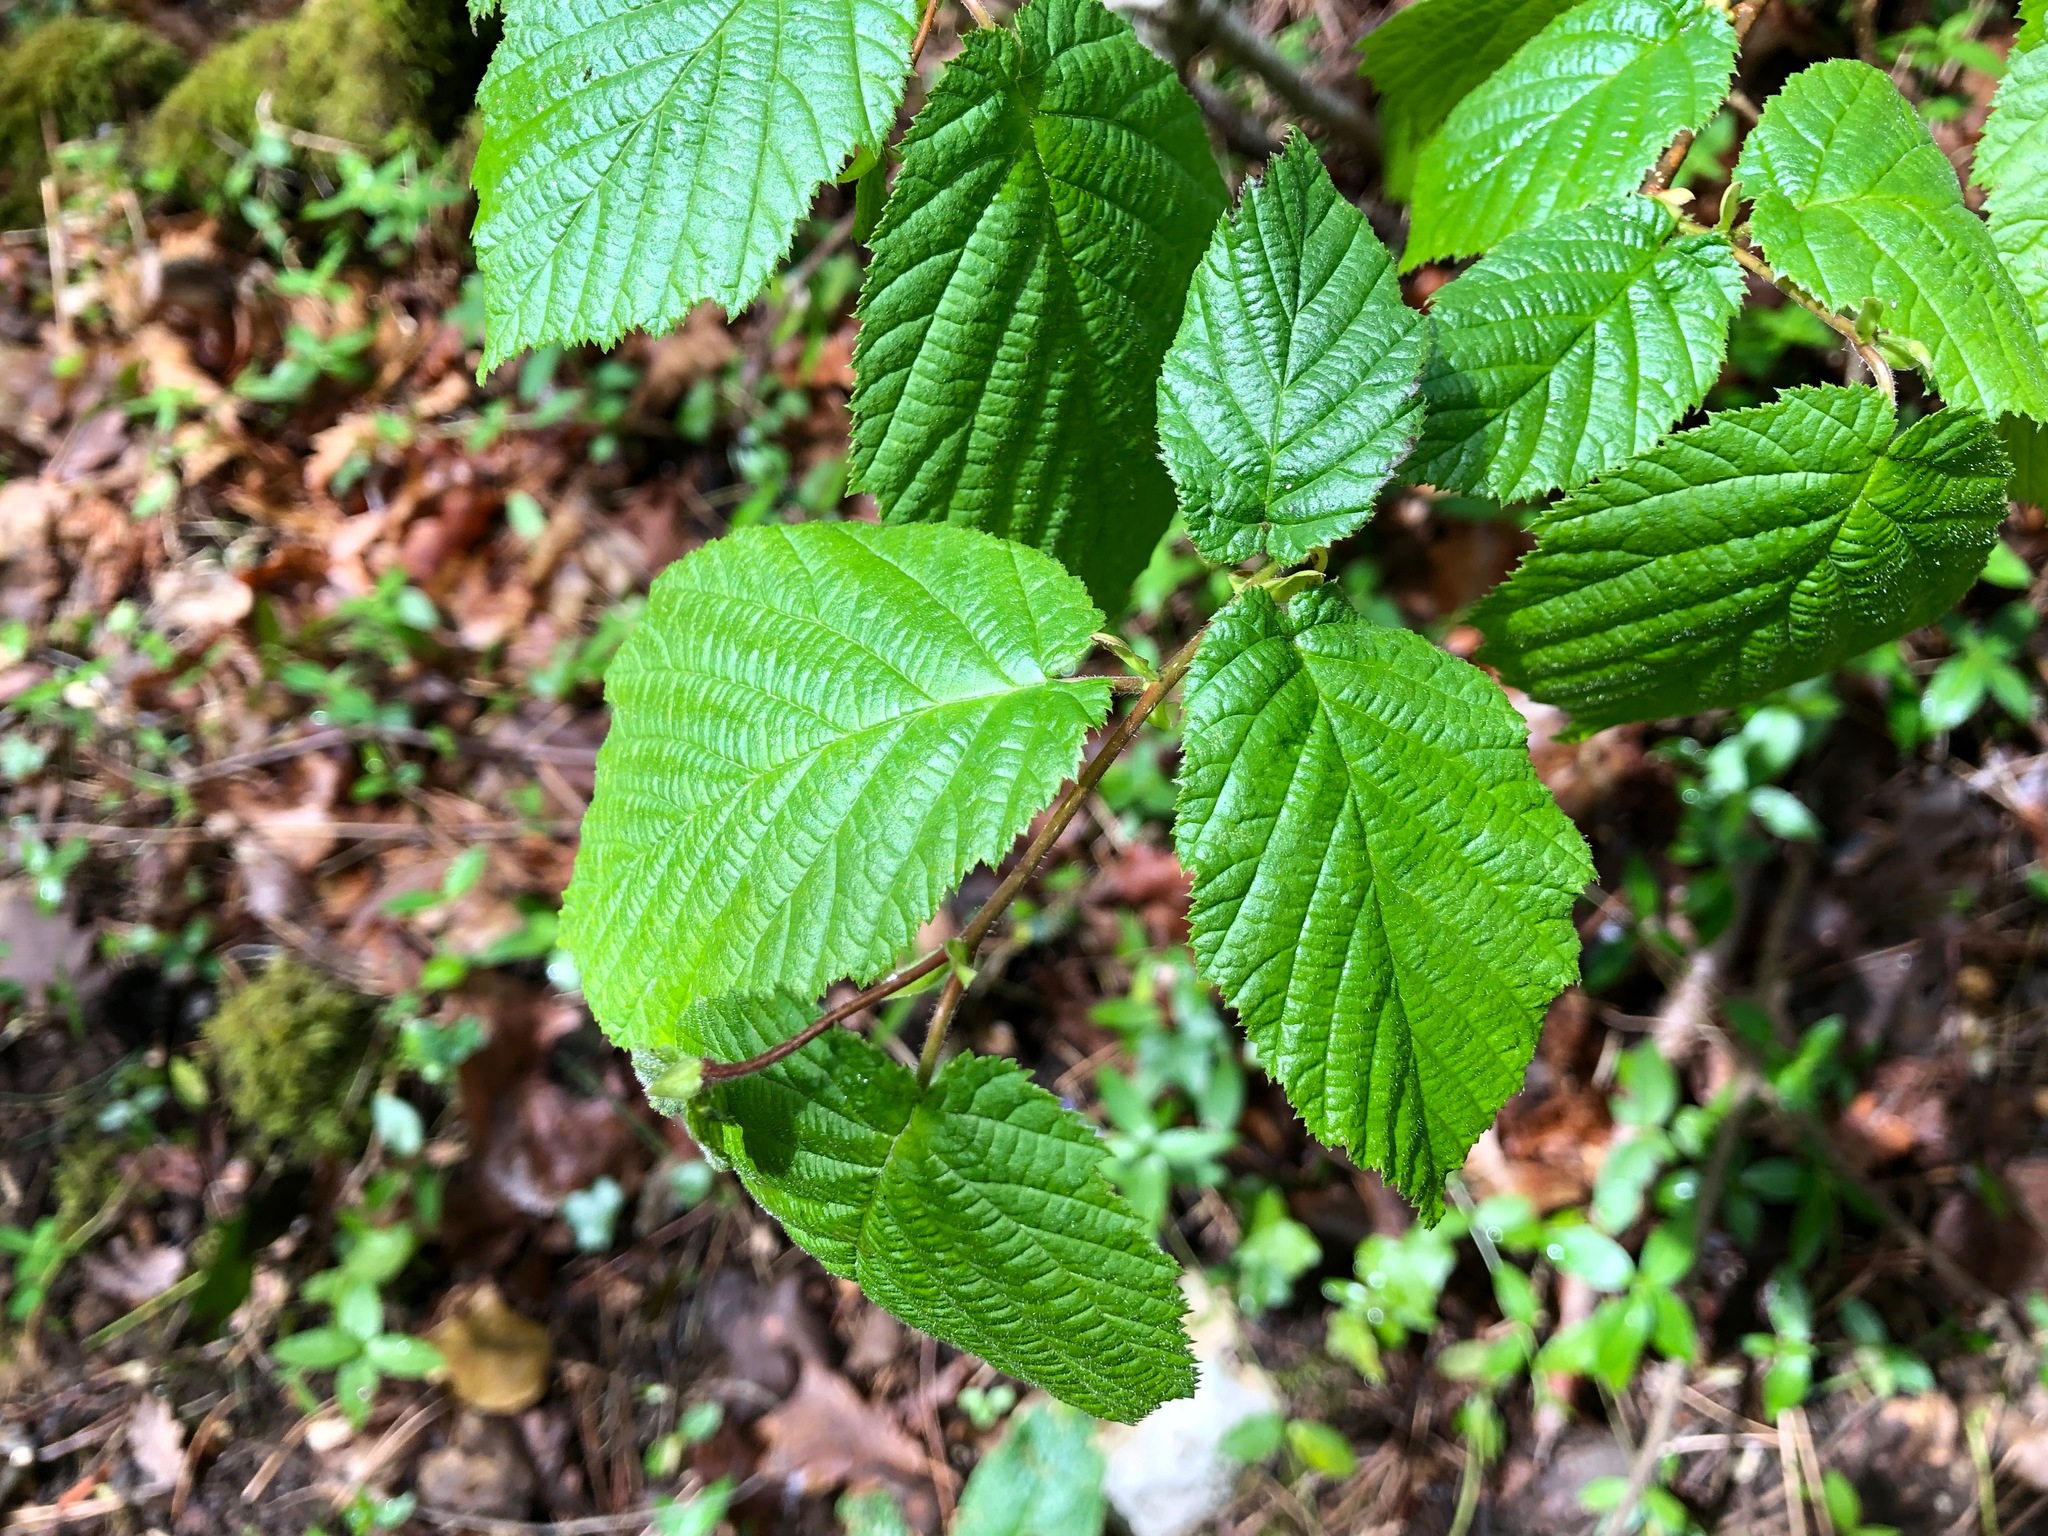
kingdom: Plantae
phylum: Tracheophyta
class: Magnoliopsida
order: Fagales
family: Betulaceae
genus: Corylus
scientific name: Corylus avellana
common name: European hazel
